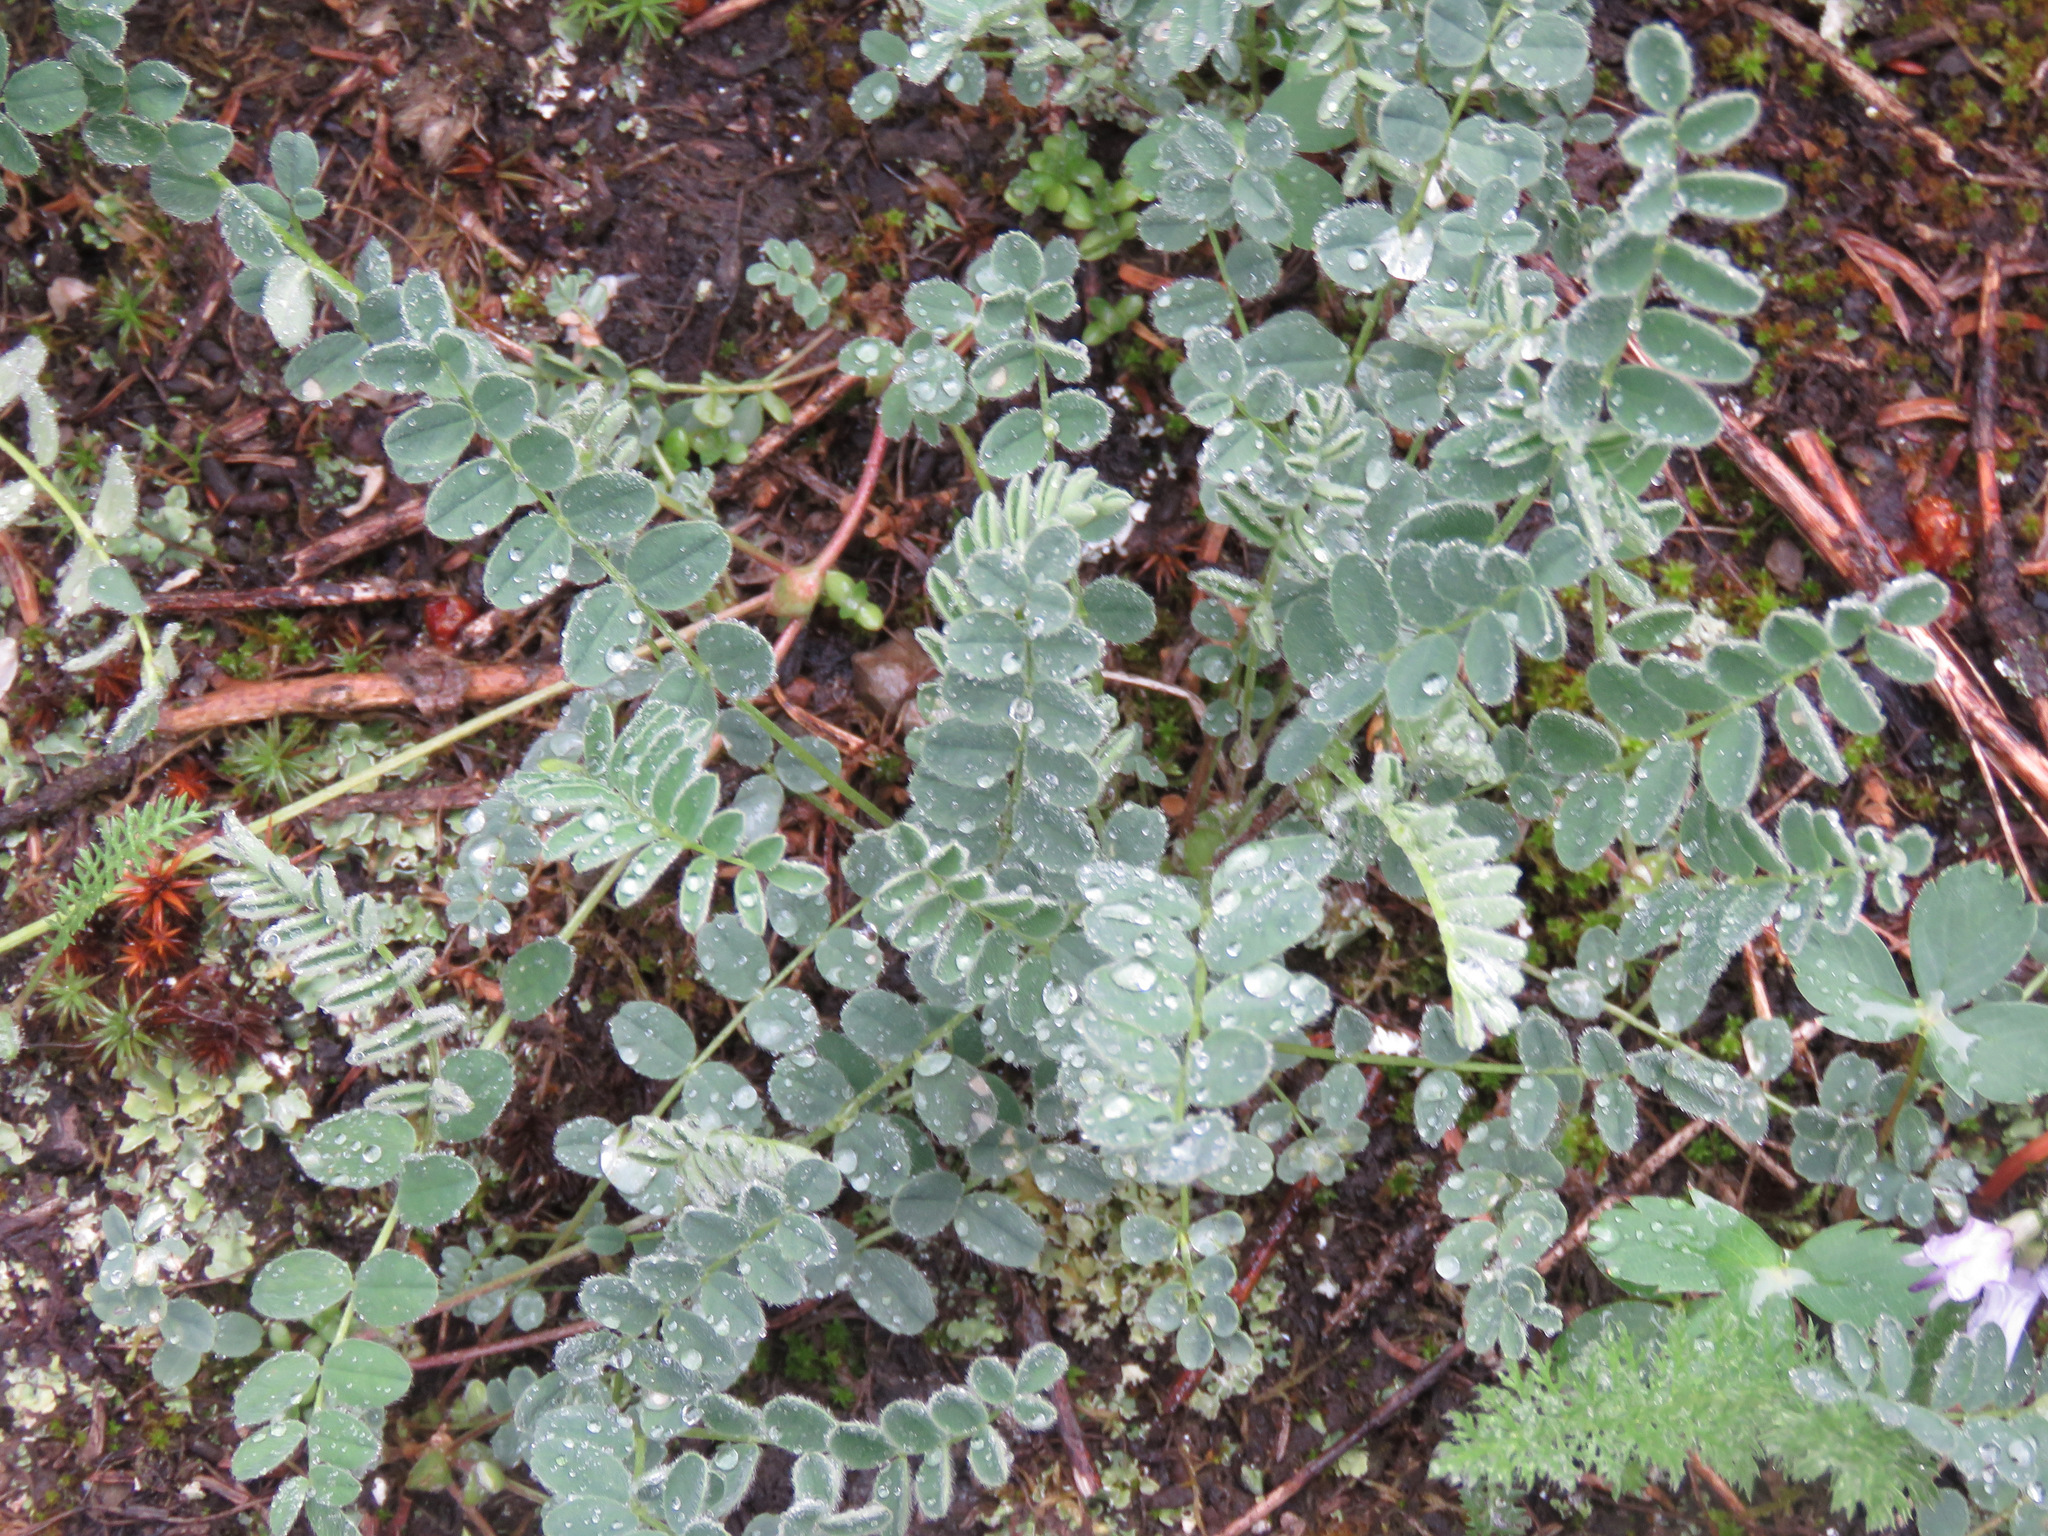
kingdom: Plantae
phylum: Tracheophyta
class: Magnoliopsida
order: Fabales
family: Fabaceae
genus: Astragalus
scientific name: Astragalus alpinus
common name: Alpine milk-vetch
